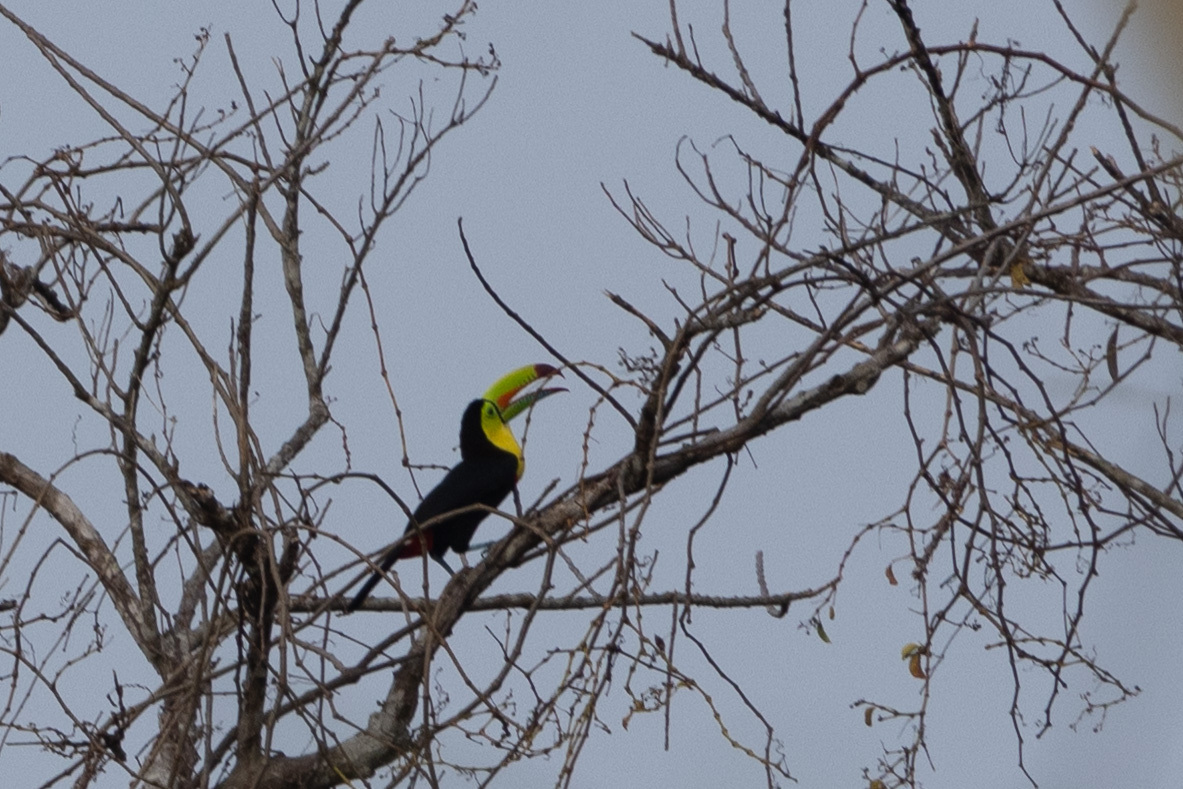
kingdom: Animalia
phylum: Chordata
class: Aves
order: Piciformes
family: Ramphastidae
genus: Ramphastos
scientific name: Ramphastos sulfuratus
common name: Keel-billed toucan
